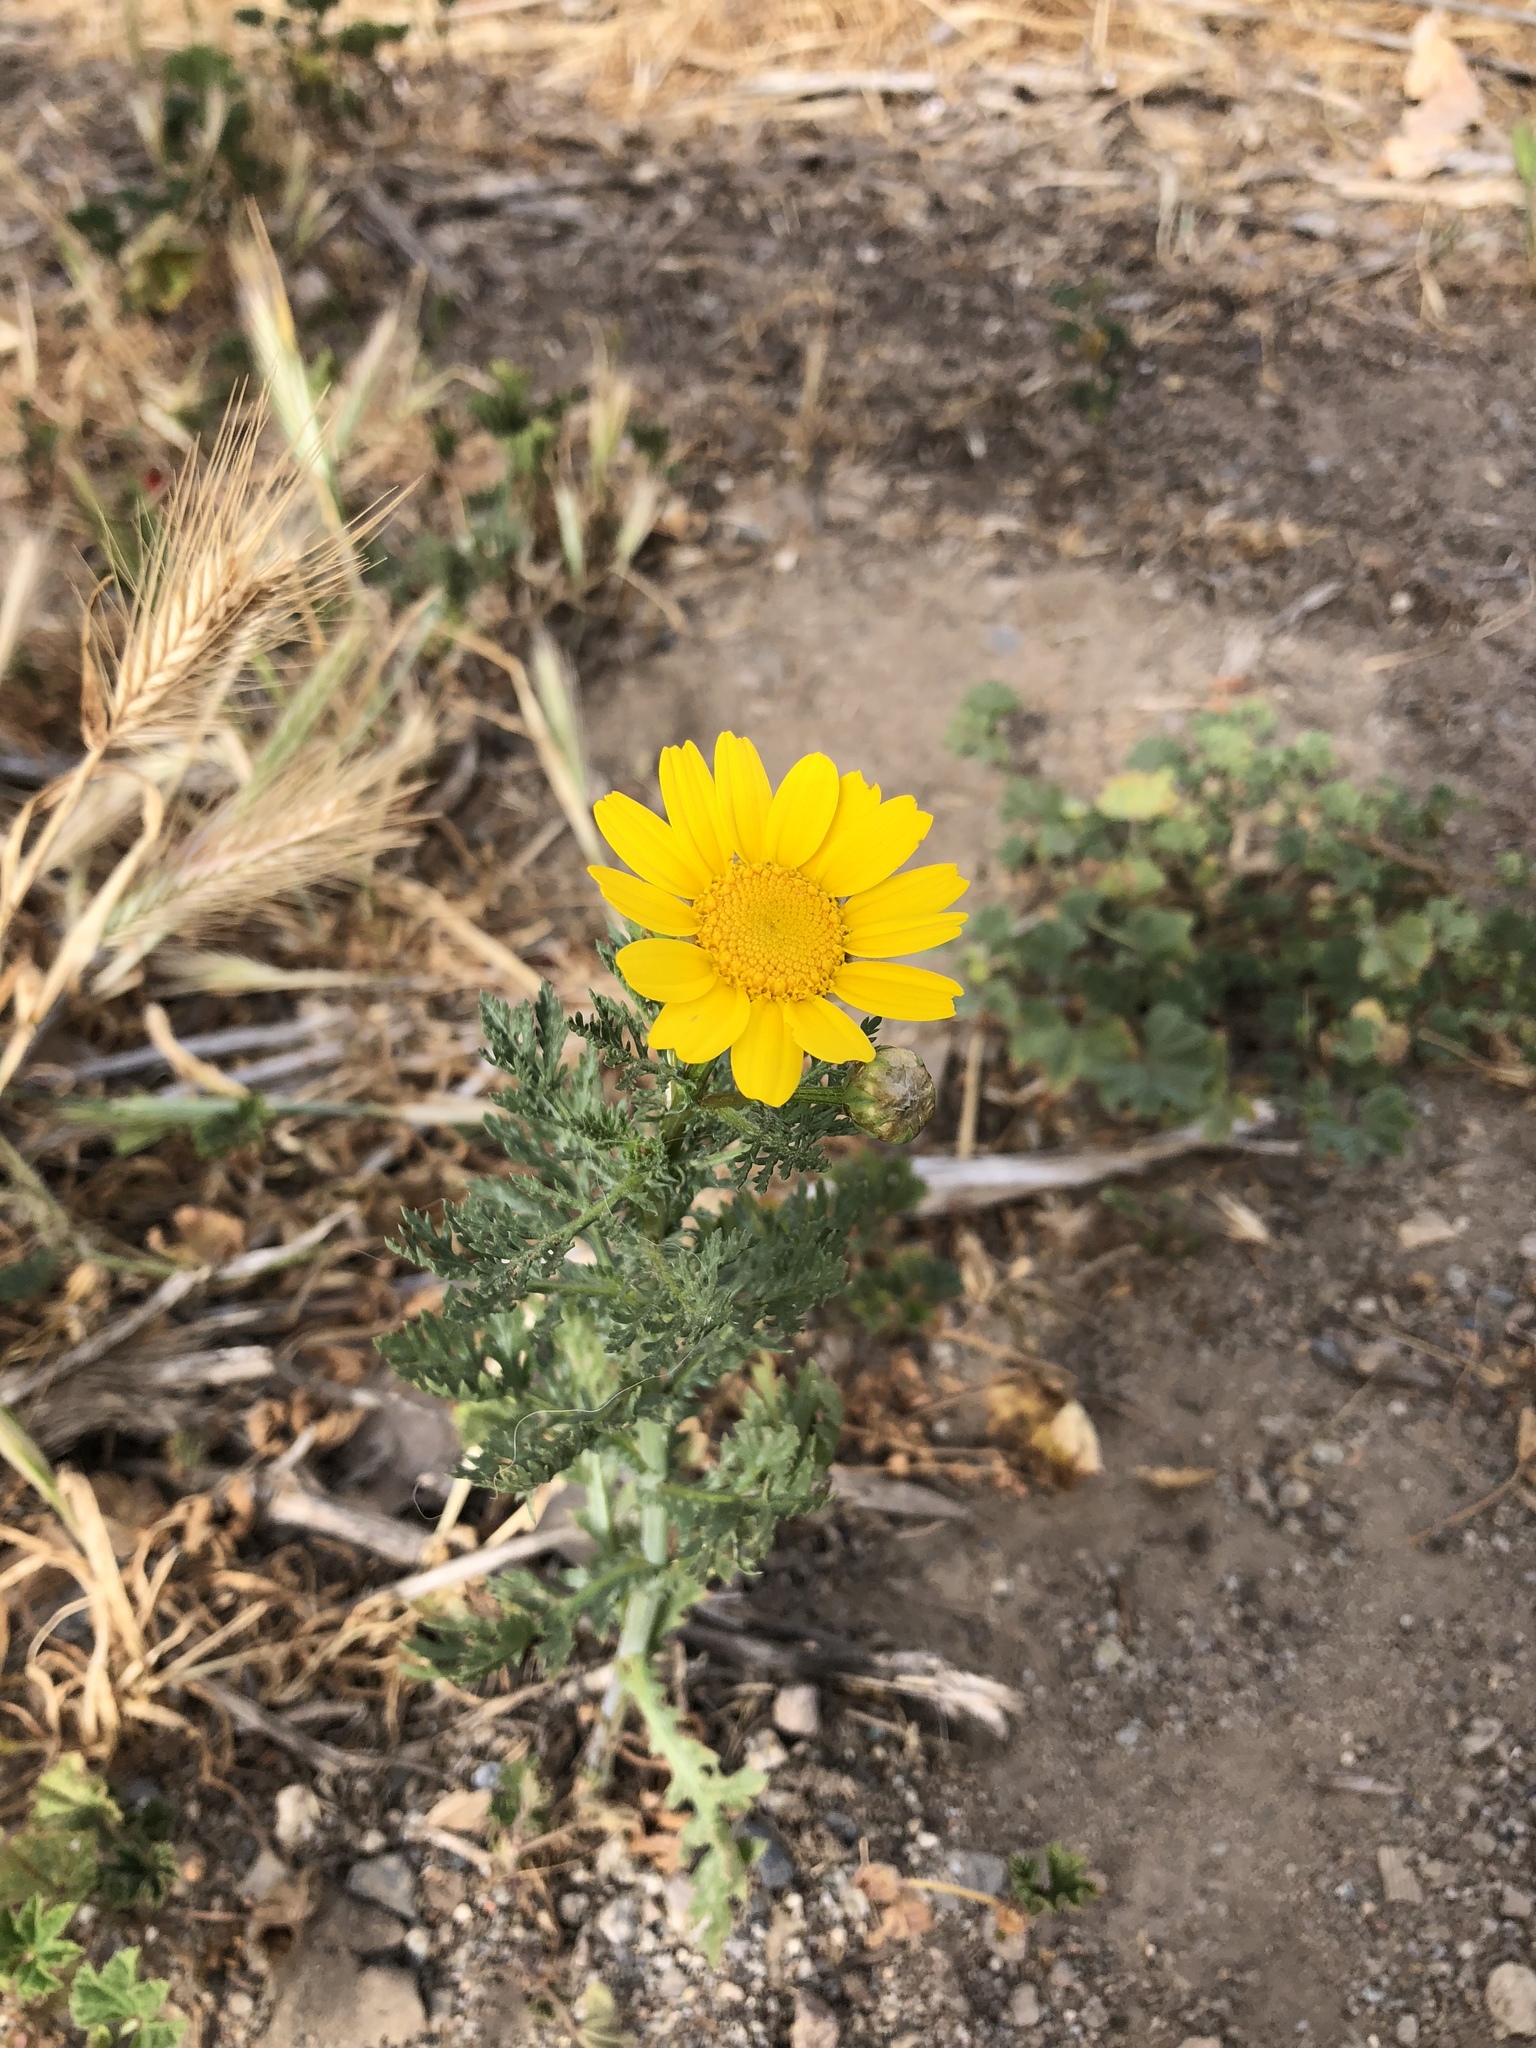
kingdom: Plantae
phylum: Tracheophyta
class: Magnoliopsida
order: Asterales
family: Asteraceae
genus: Glebionis
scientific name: Glebionis coronaria
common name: Crowndaisy
